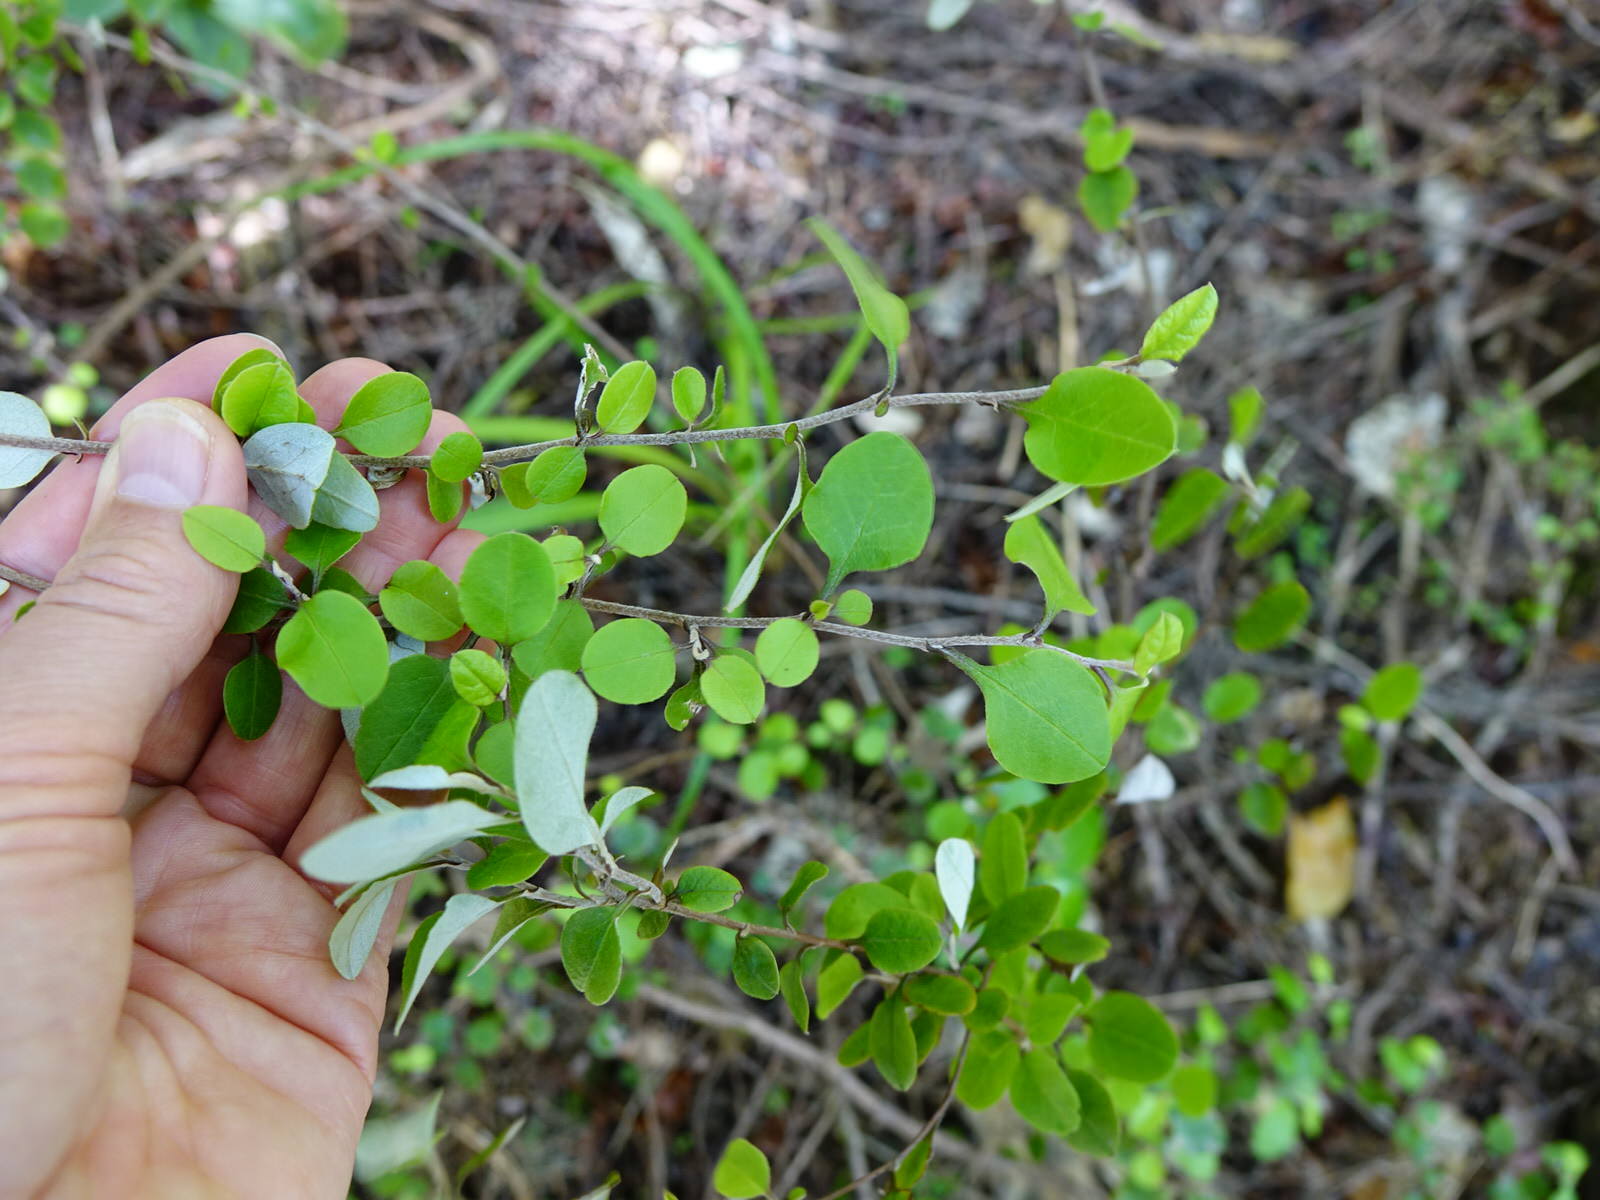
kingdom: Plantae
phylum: Tracheophyta
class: Magnoliopsida
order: Asterales
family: Asteraceae
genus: Ozothamnus
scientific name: Ozothamnus glomeratus
